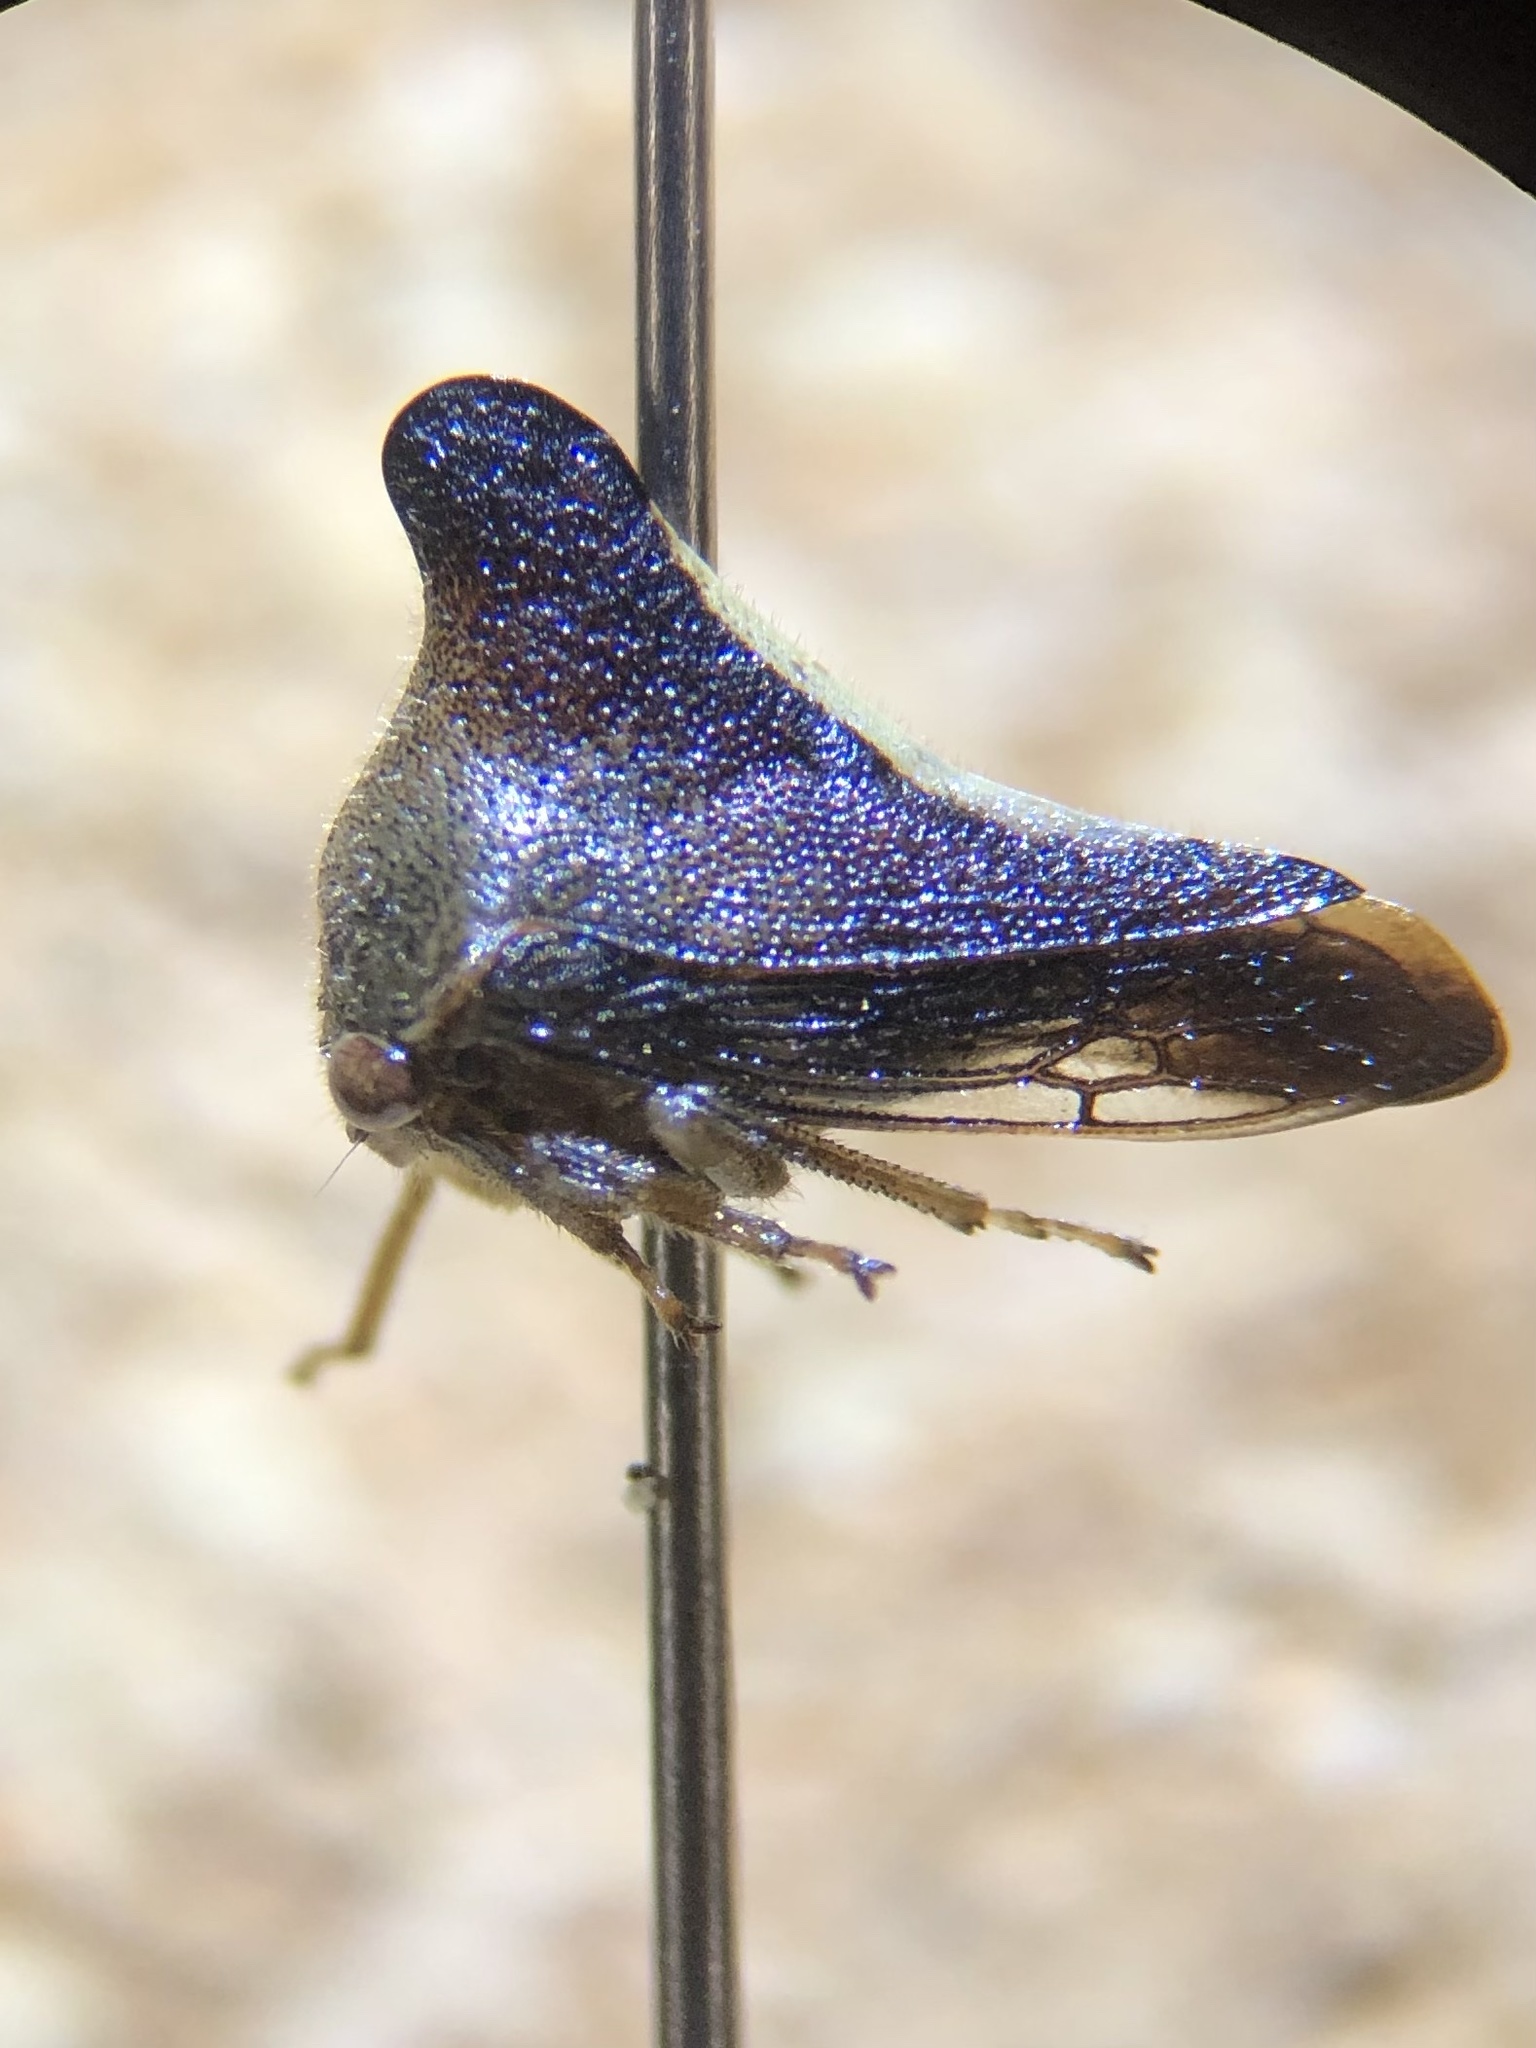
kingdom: Animalia
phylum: Arthropoda
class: Insecta
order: Hemiptera
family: Membracidae
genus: Glossonotus
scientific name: Glossonotus univittatus
